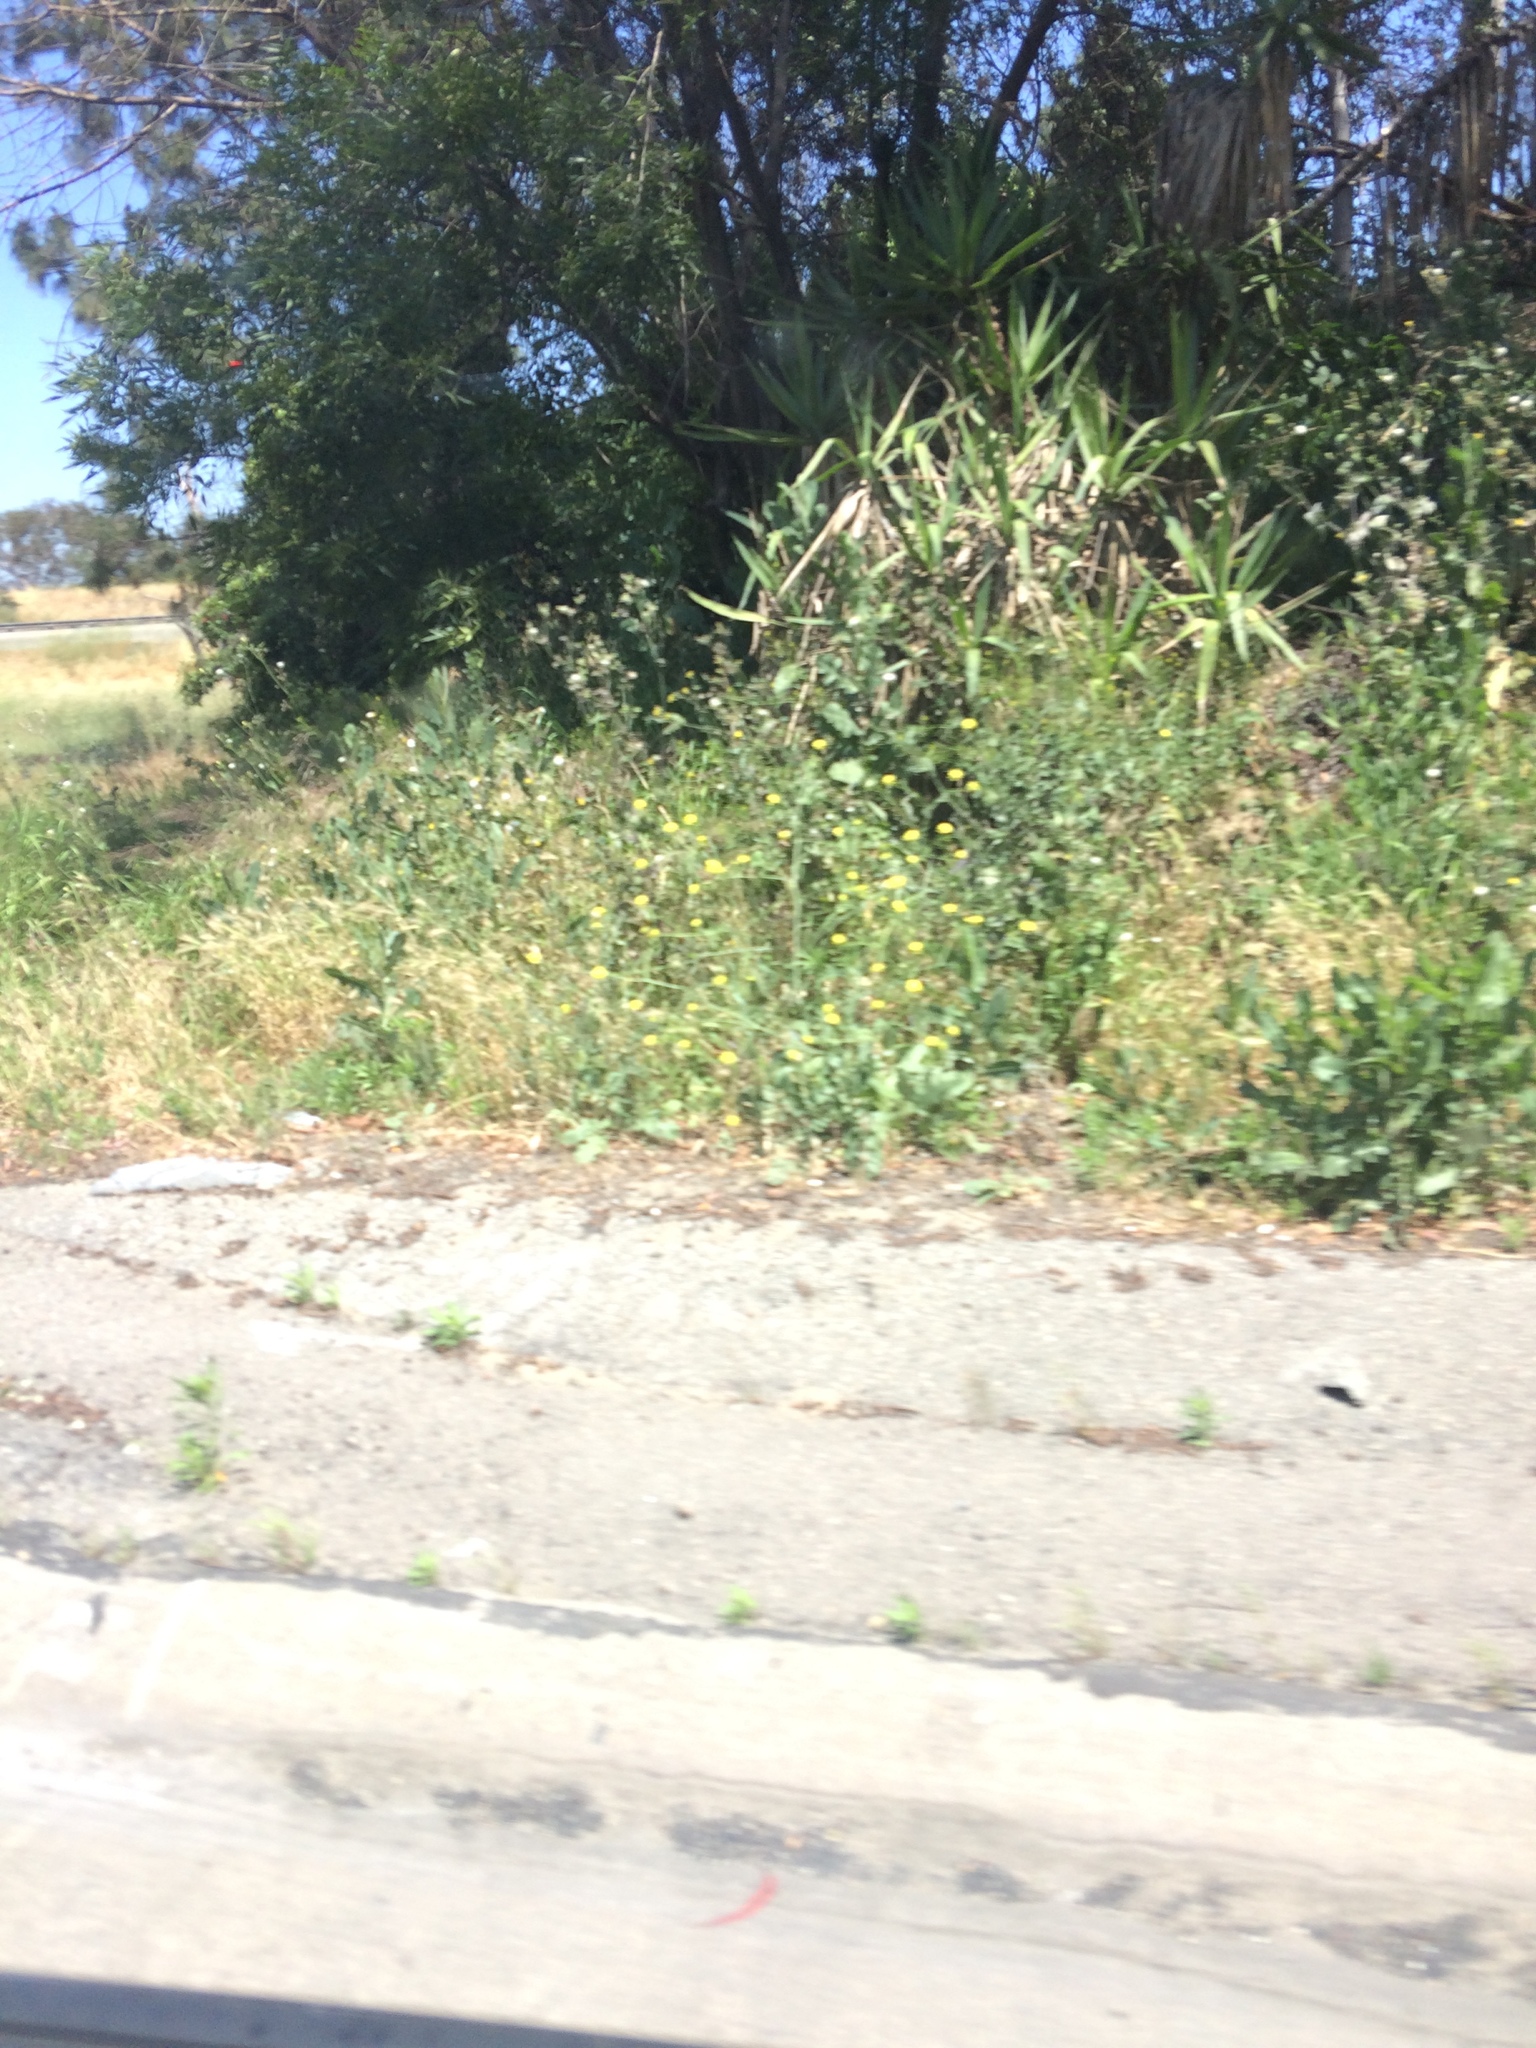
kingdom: Plantae
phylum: Tracheophyta
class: Magnoliopsida
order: Brassicales
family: Brassicaceae
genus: Hirschfeldia
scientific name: Hirschfeldia incana
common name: Hoary mustard
